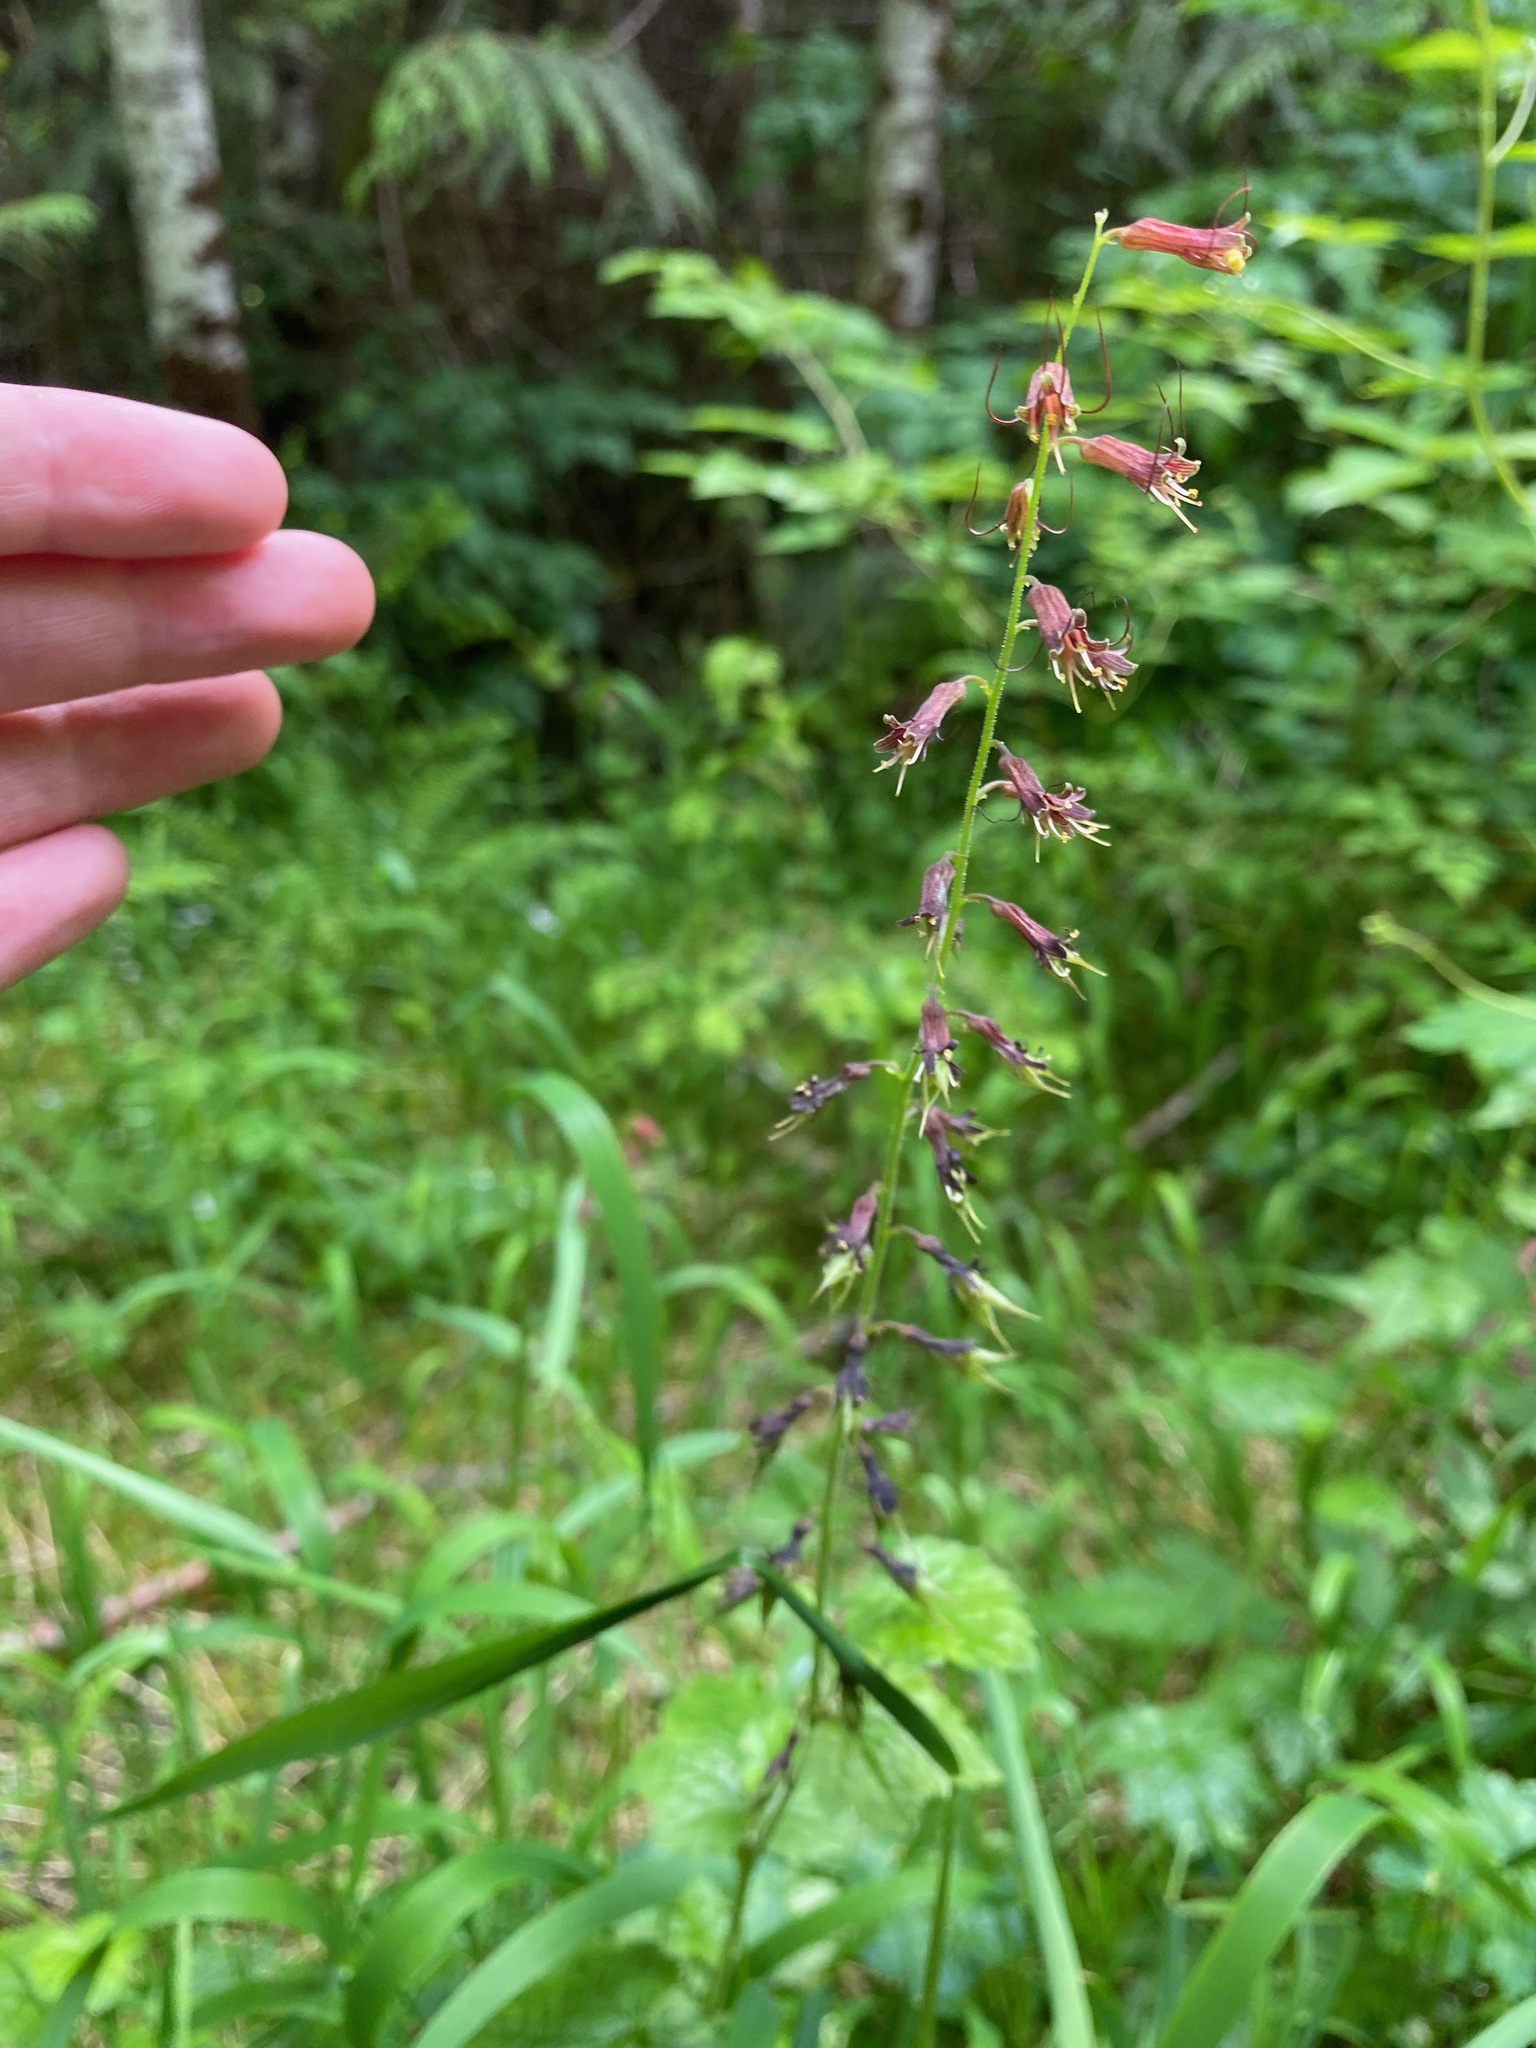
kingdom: Plantae
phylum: Tracheophyta
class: Magnoliopsida
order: Saxifragales
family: Saxifragaceae
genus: Tolmiea
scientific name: Tolmiea menziesii
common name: Pick-a-back-plant
